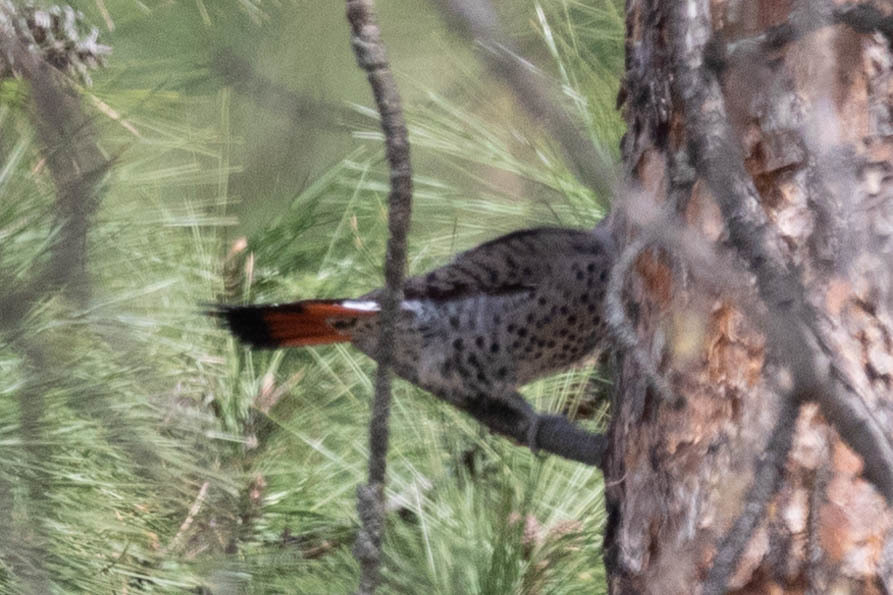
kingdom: Animalia
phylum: Chordata
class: Aves
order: Piciformes
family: Picidae
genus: Colaptes
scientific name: Colaptes auratus
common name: Northern flicker
